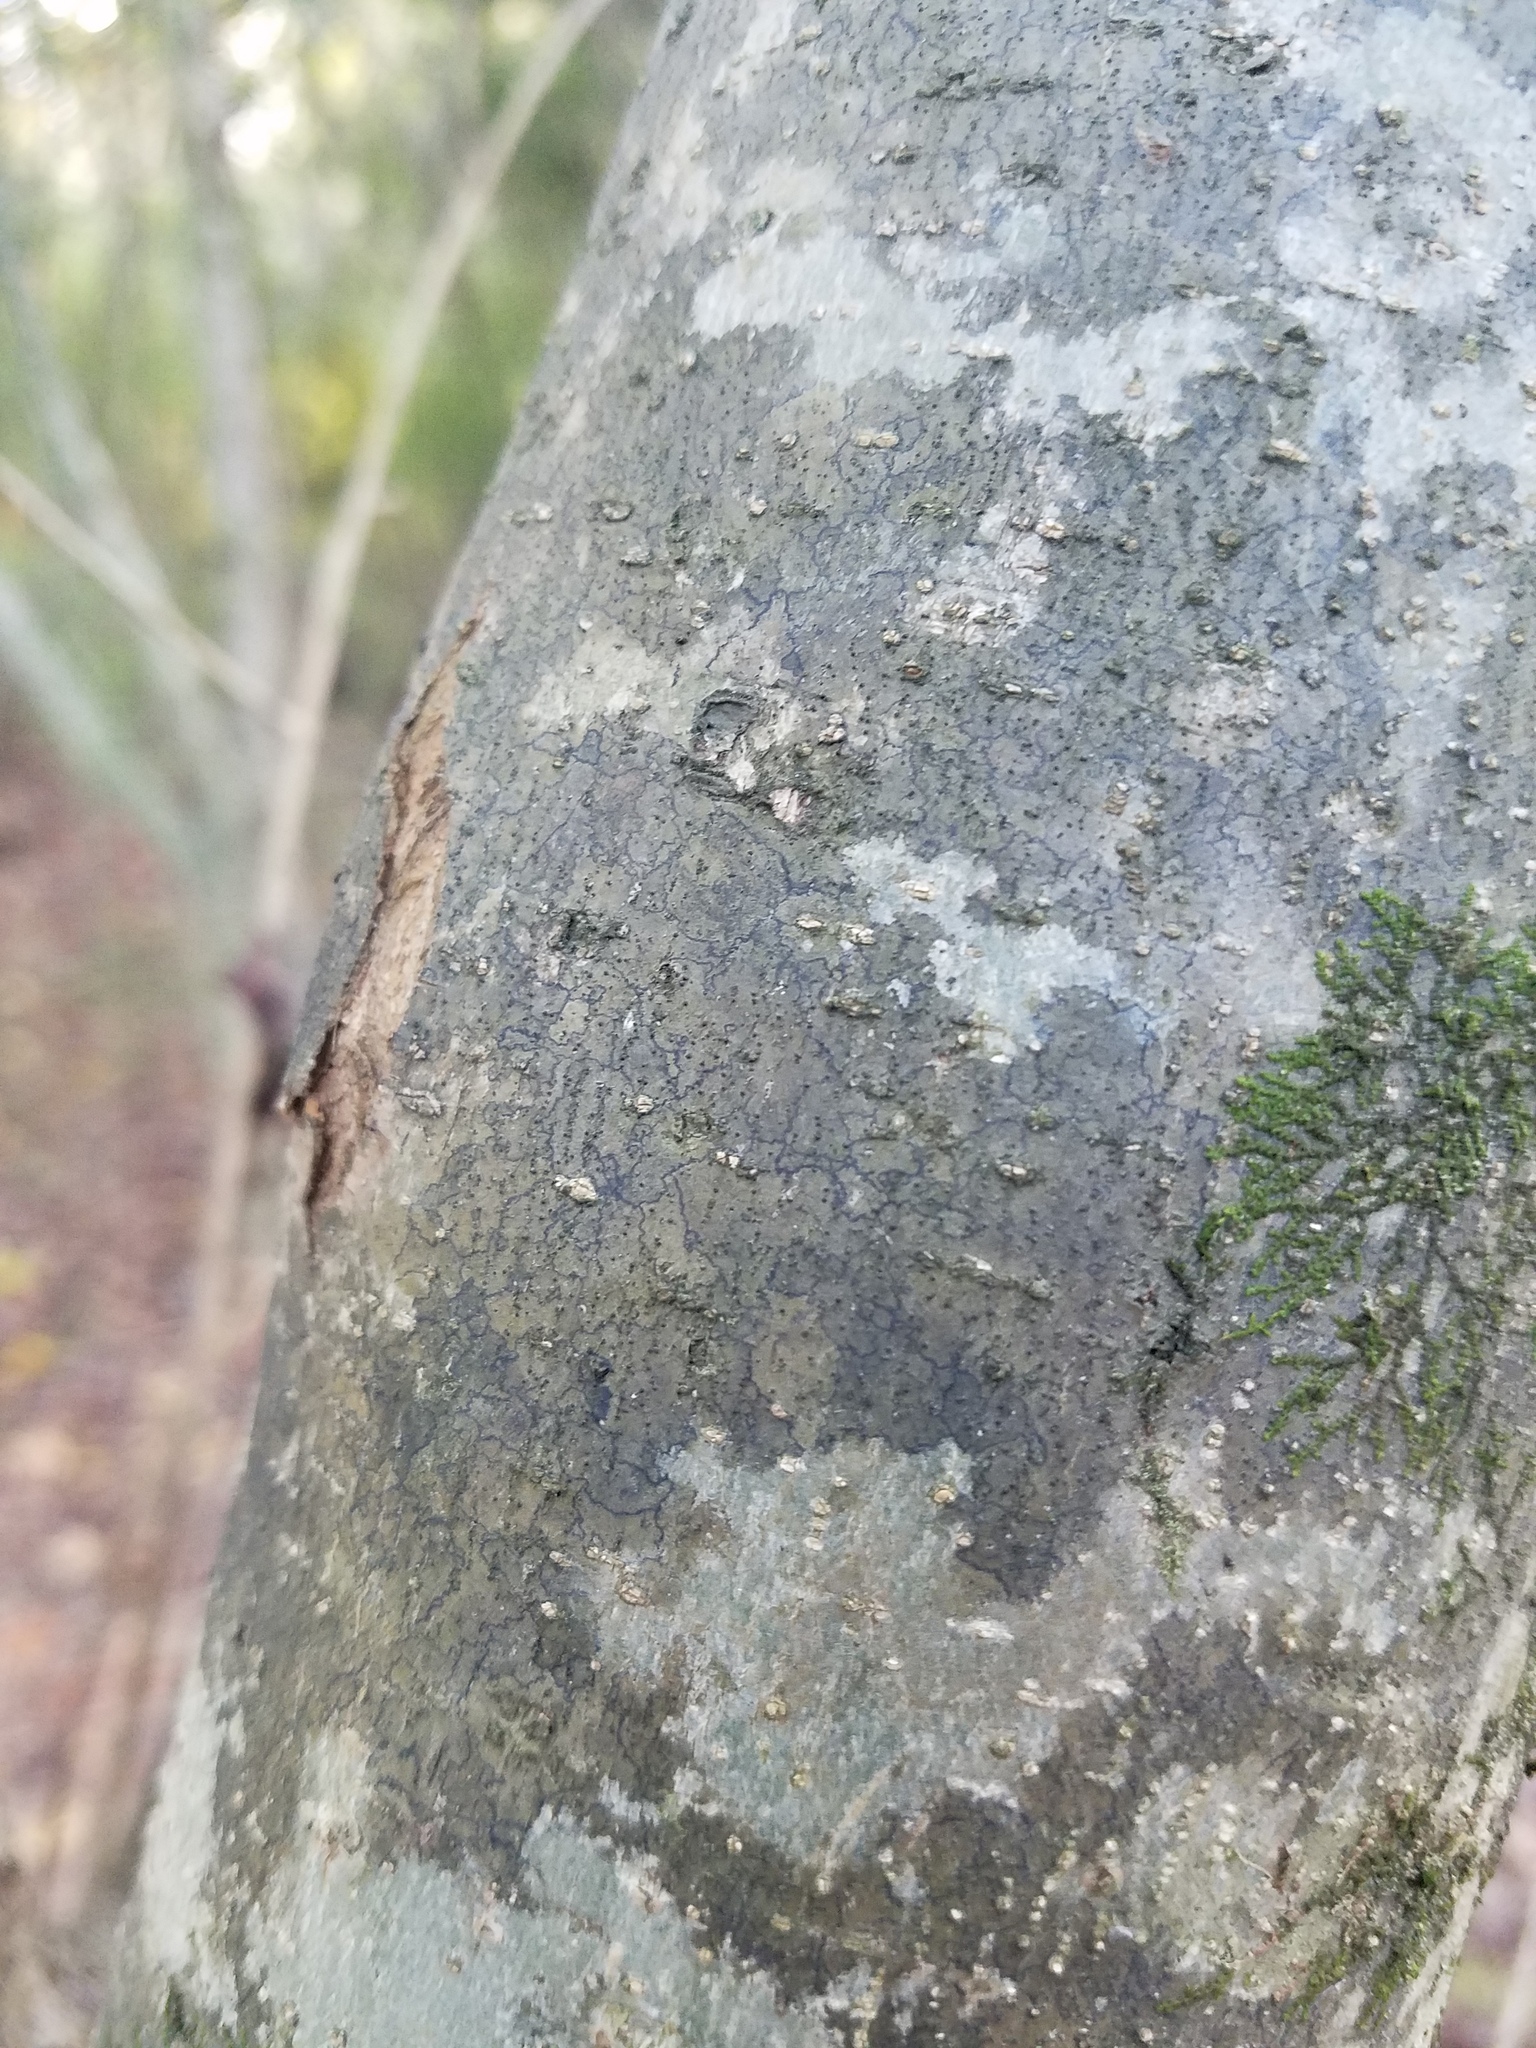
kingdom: Fungi
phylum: Ascomycota
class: Lecanoromycetes
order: Ostropales
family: Porinaceae
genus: Pseudosagedia
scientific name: Pseudosagedia cestrensis
